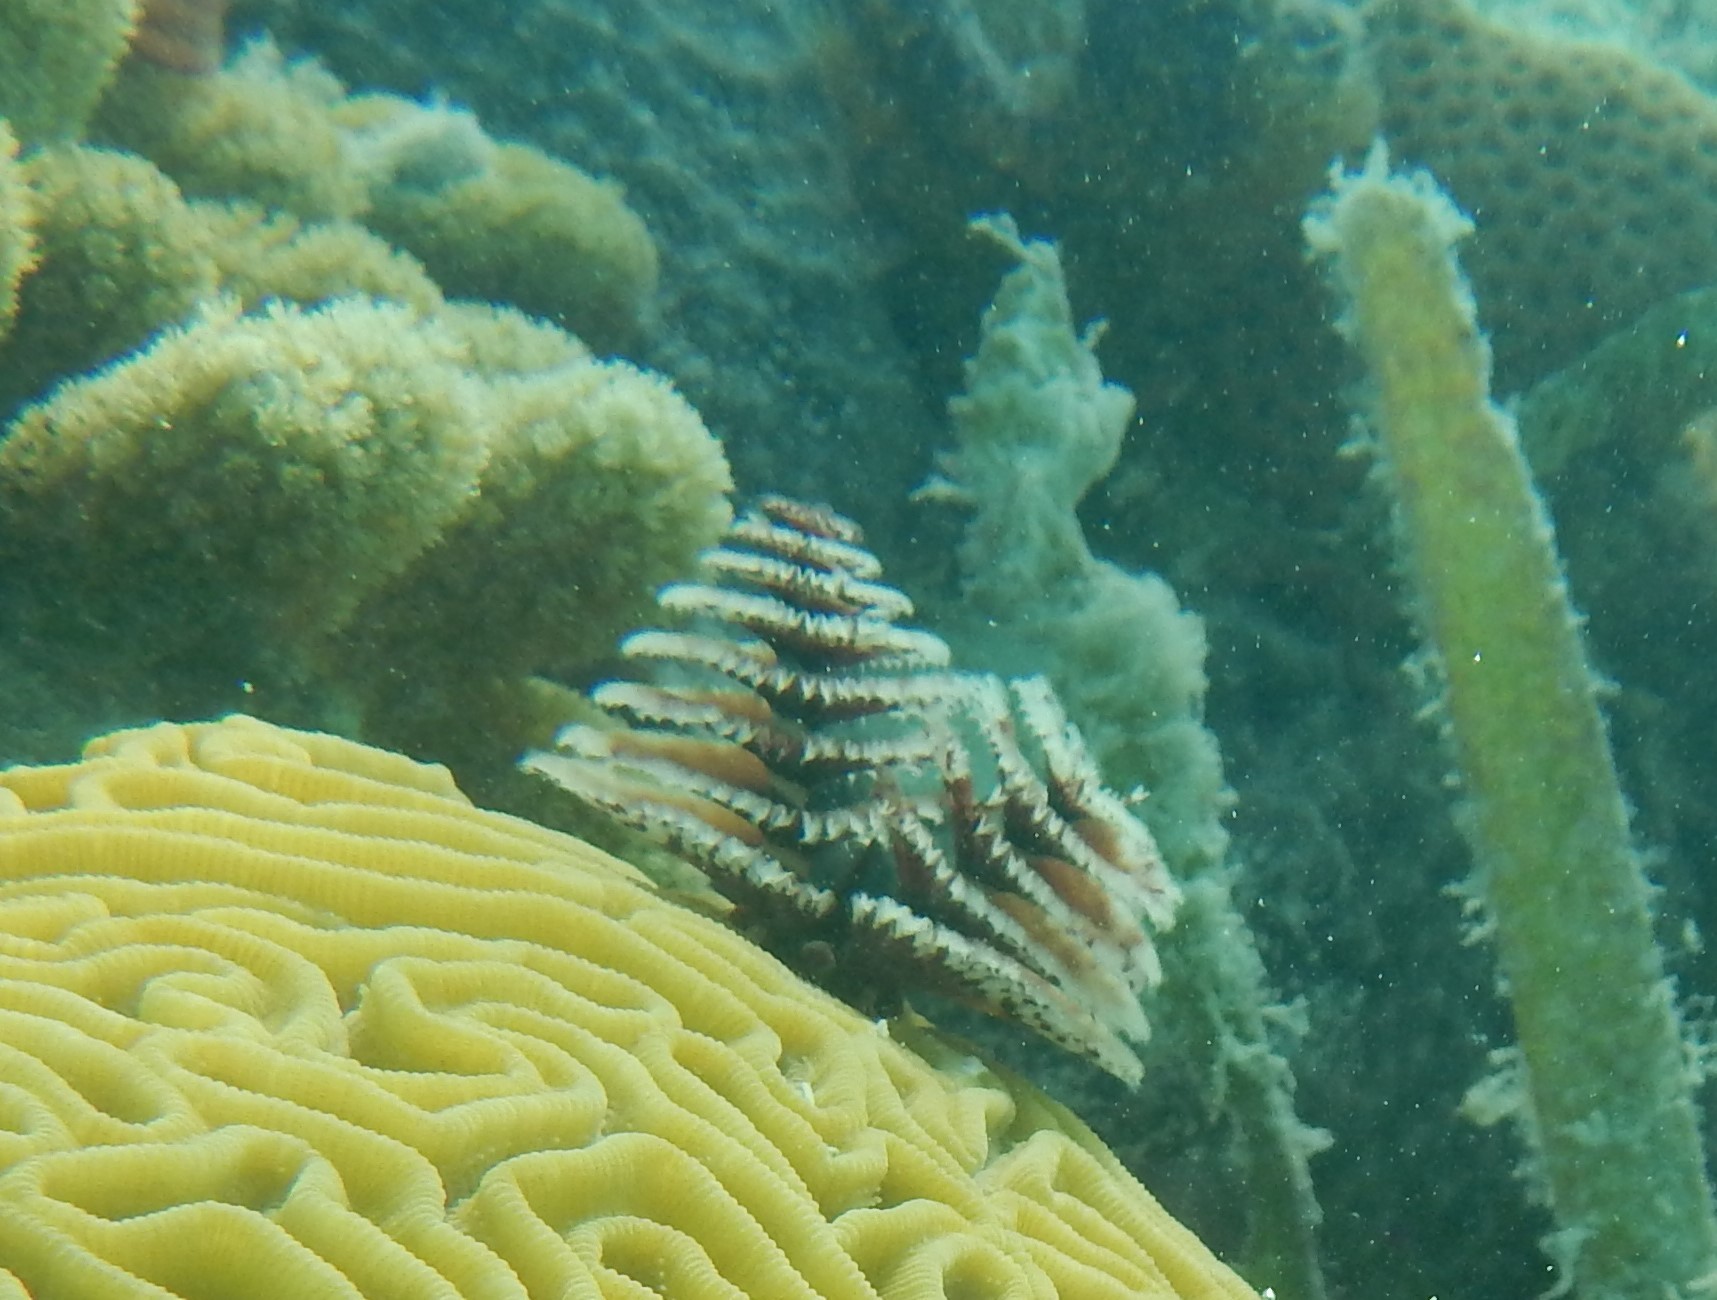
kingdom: Animalia
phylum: Annelida
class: Polychaeta
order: Sabellida
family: Serpulidae
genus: Spirobranchus
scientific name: Spirobranchus giganteus
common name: Christmas tree worm
